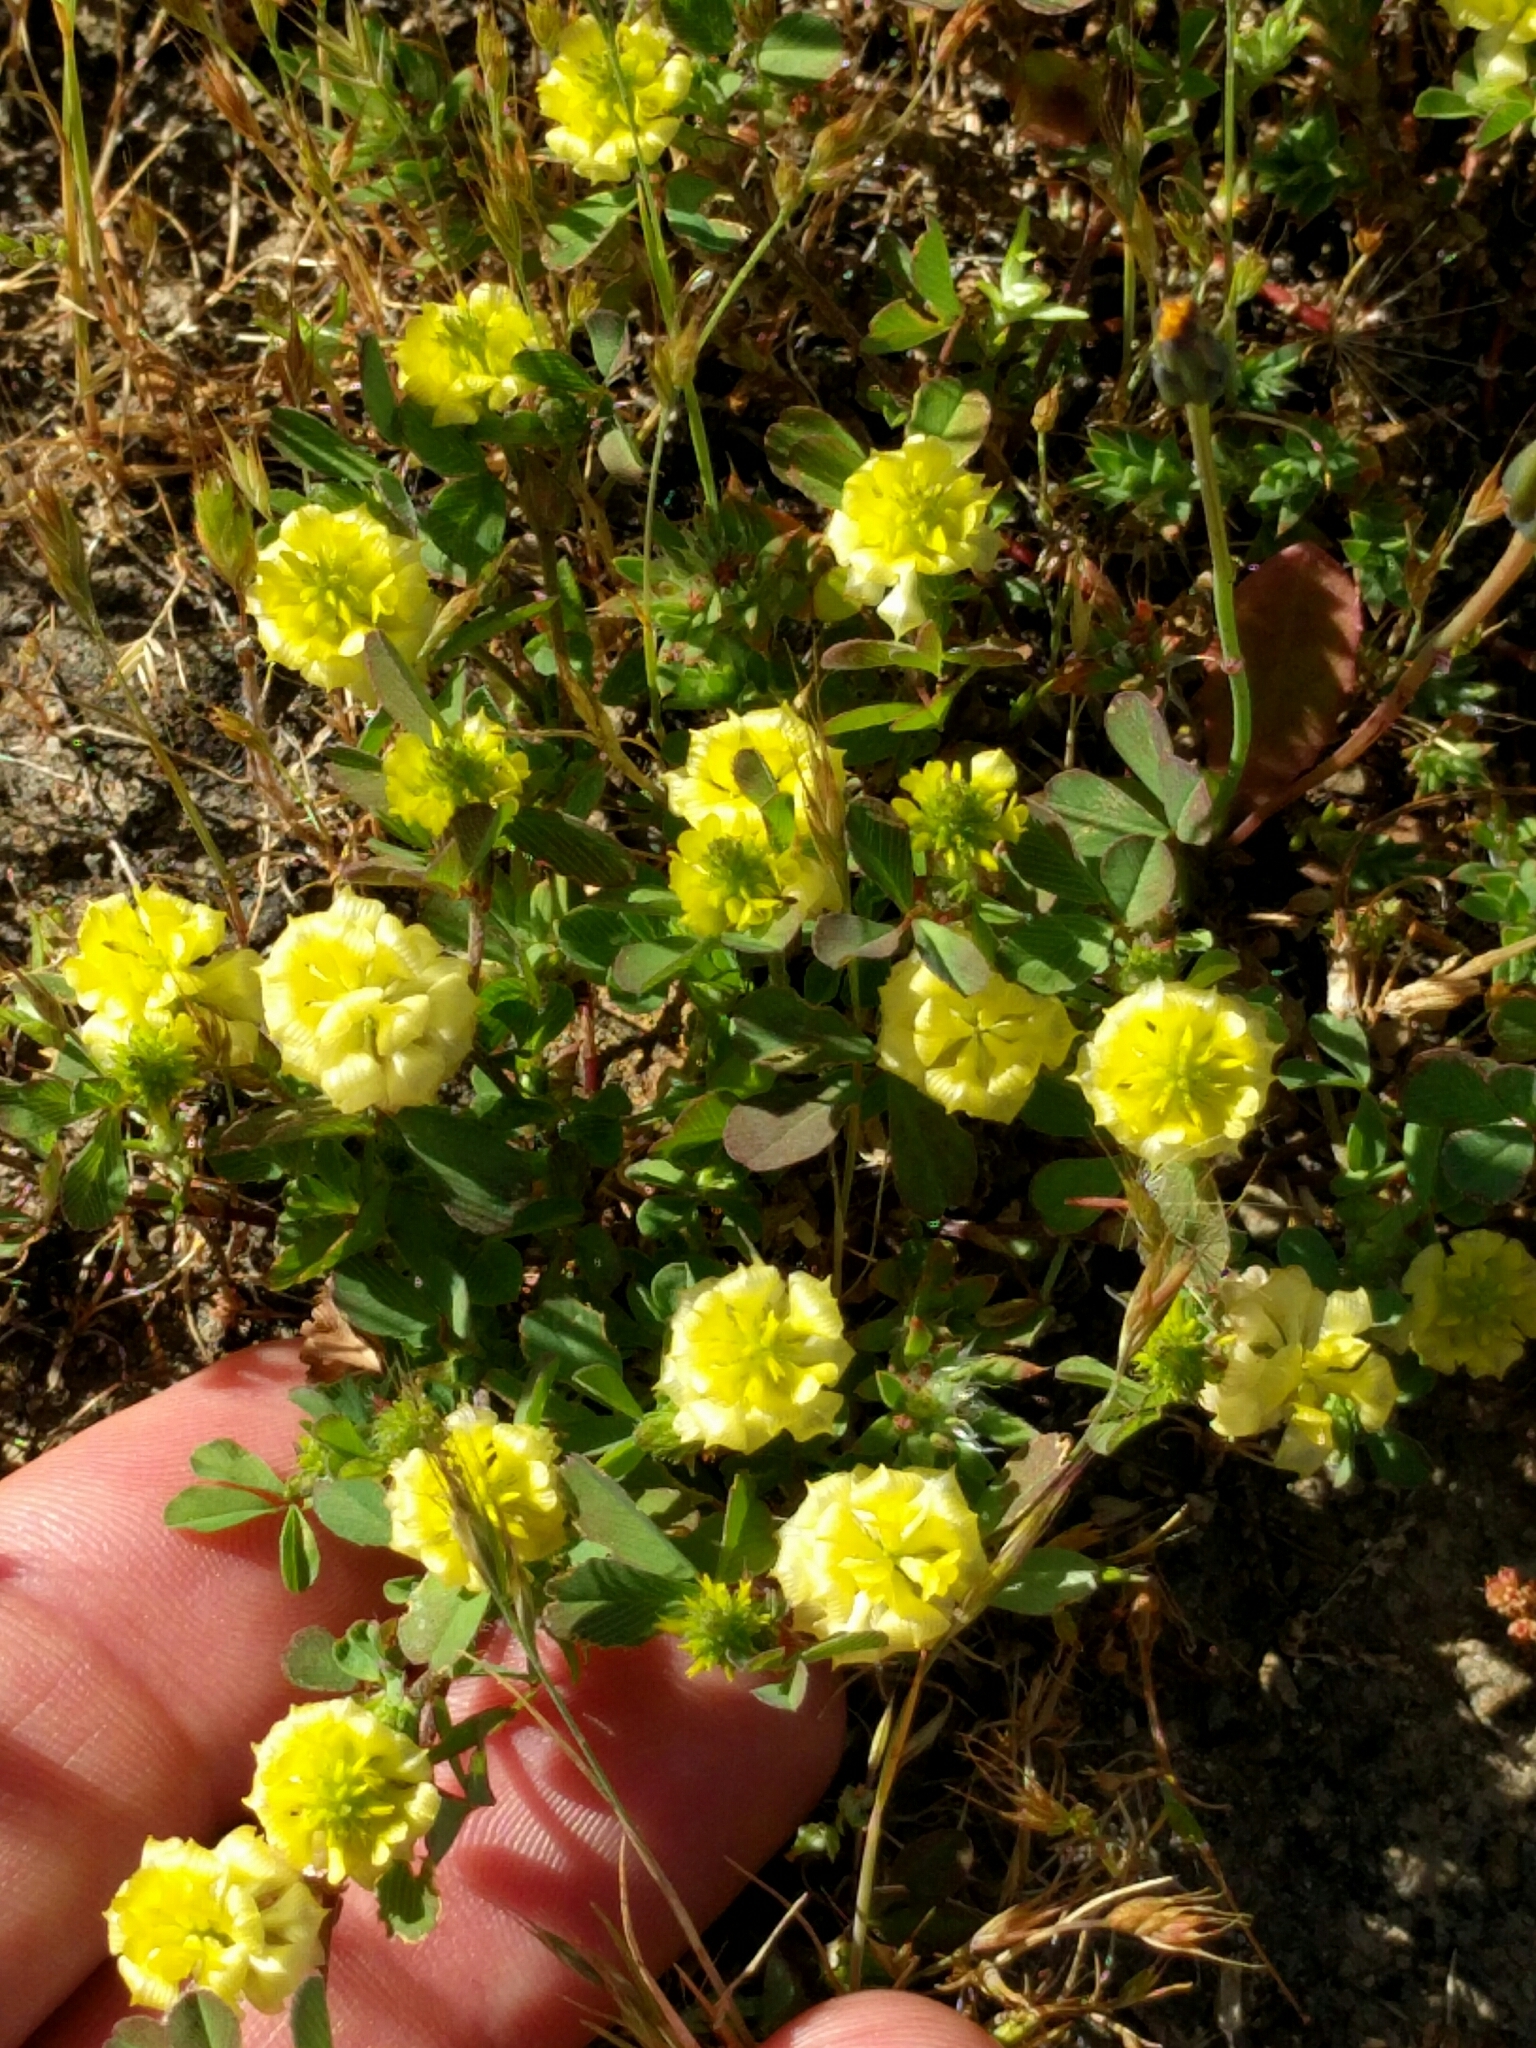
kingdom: Plantae
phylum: Tracheophyta
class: Magnoliopsida
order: Fabales
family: Fabaceae
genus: Trifolium
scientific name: Trifolium campestre
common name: Field clover
